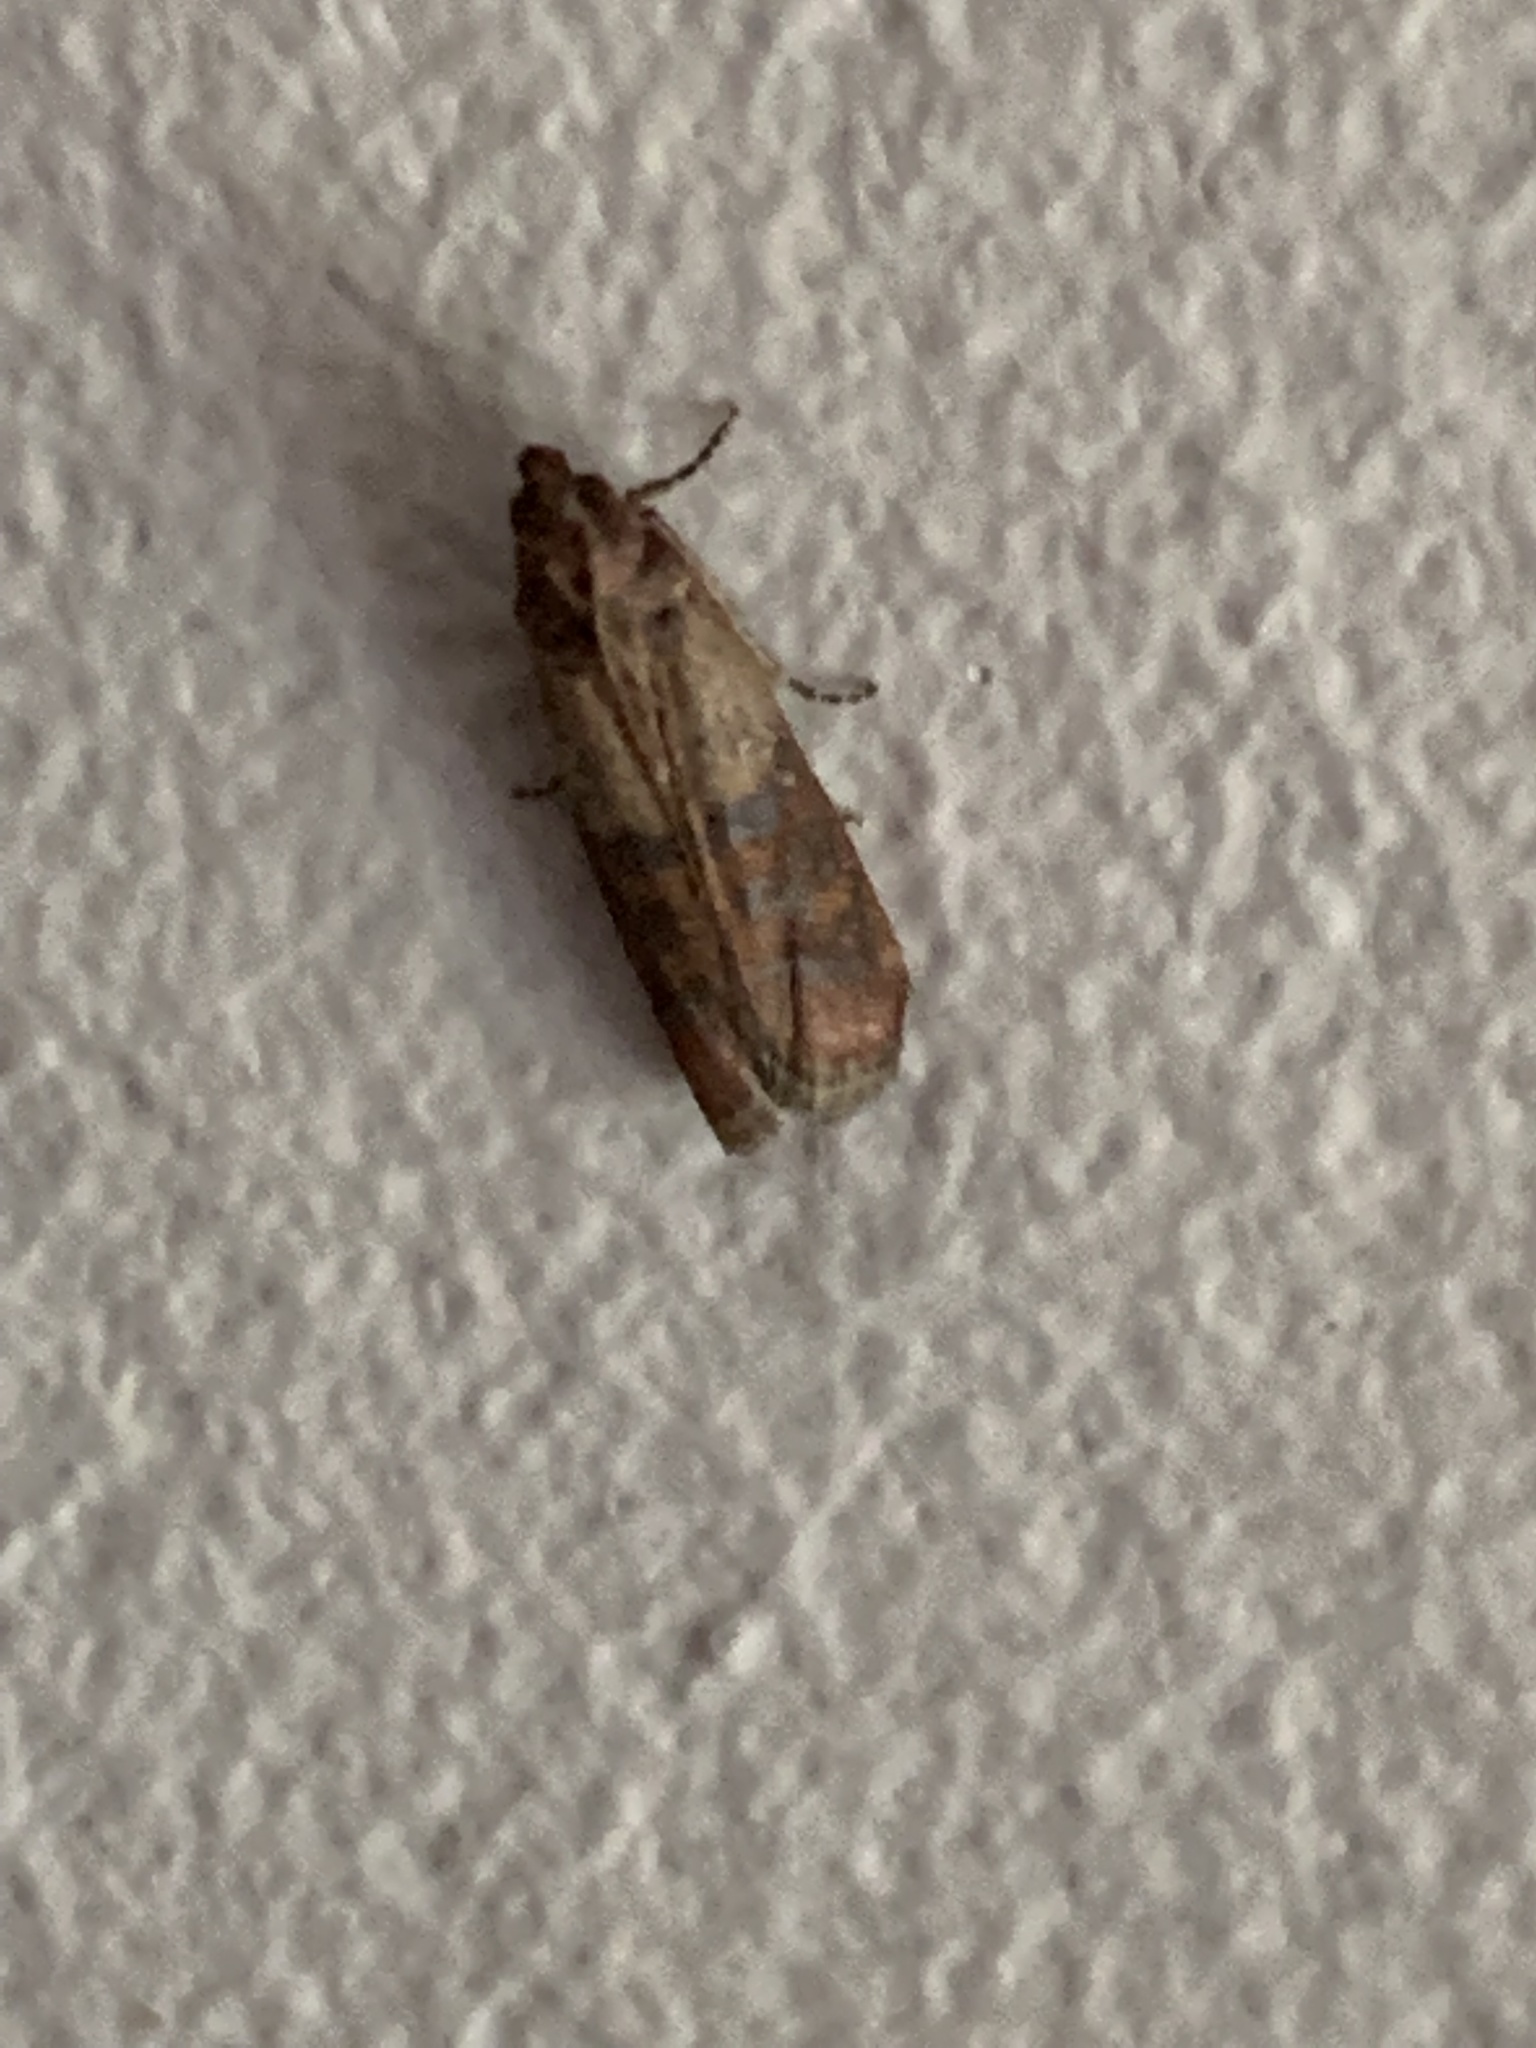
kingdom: Animalia
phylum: Arthropoda
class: Insecta
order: Lepidoptera
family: Pyralidae
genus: Plodia
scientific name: Plodia interpunctella
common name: Indian meal moth
